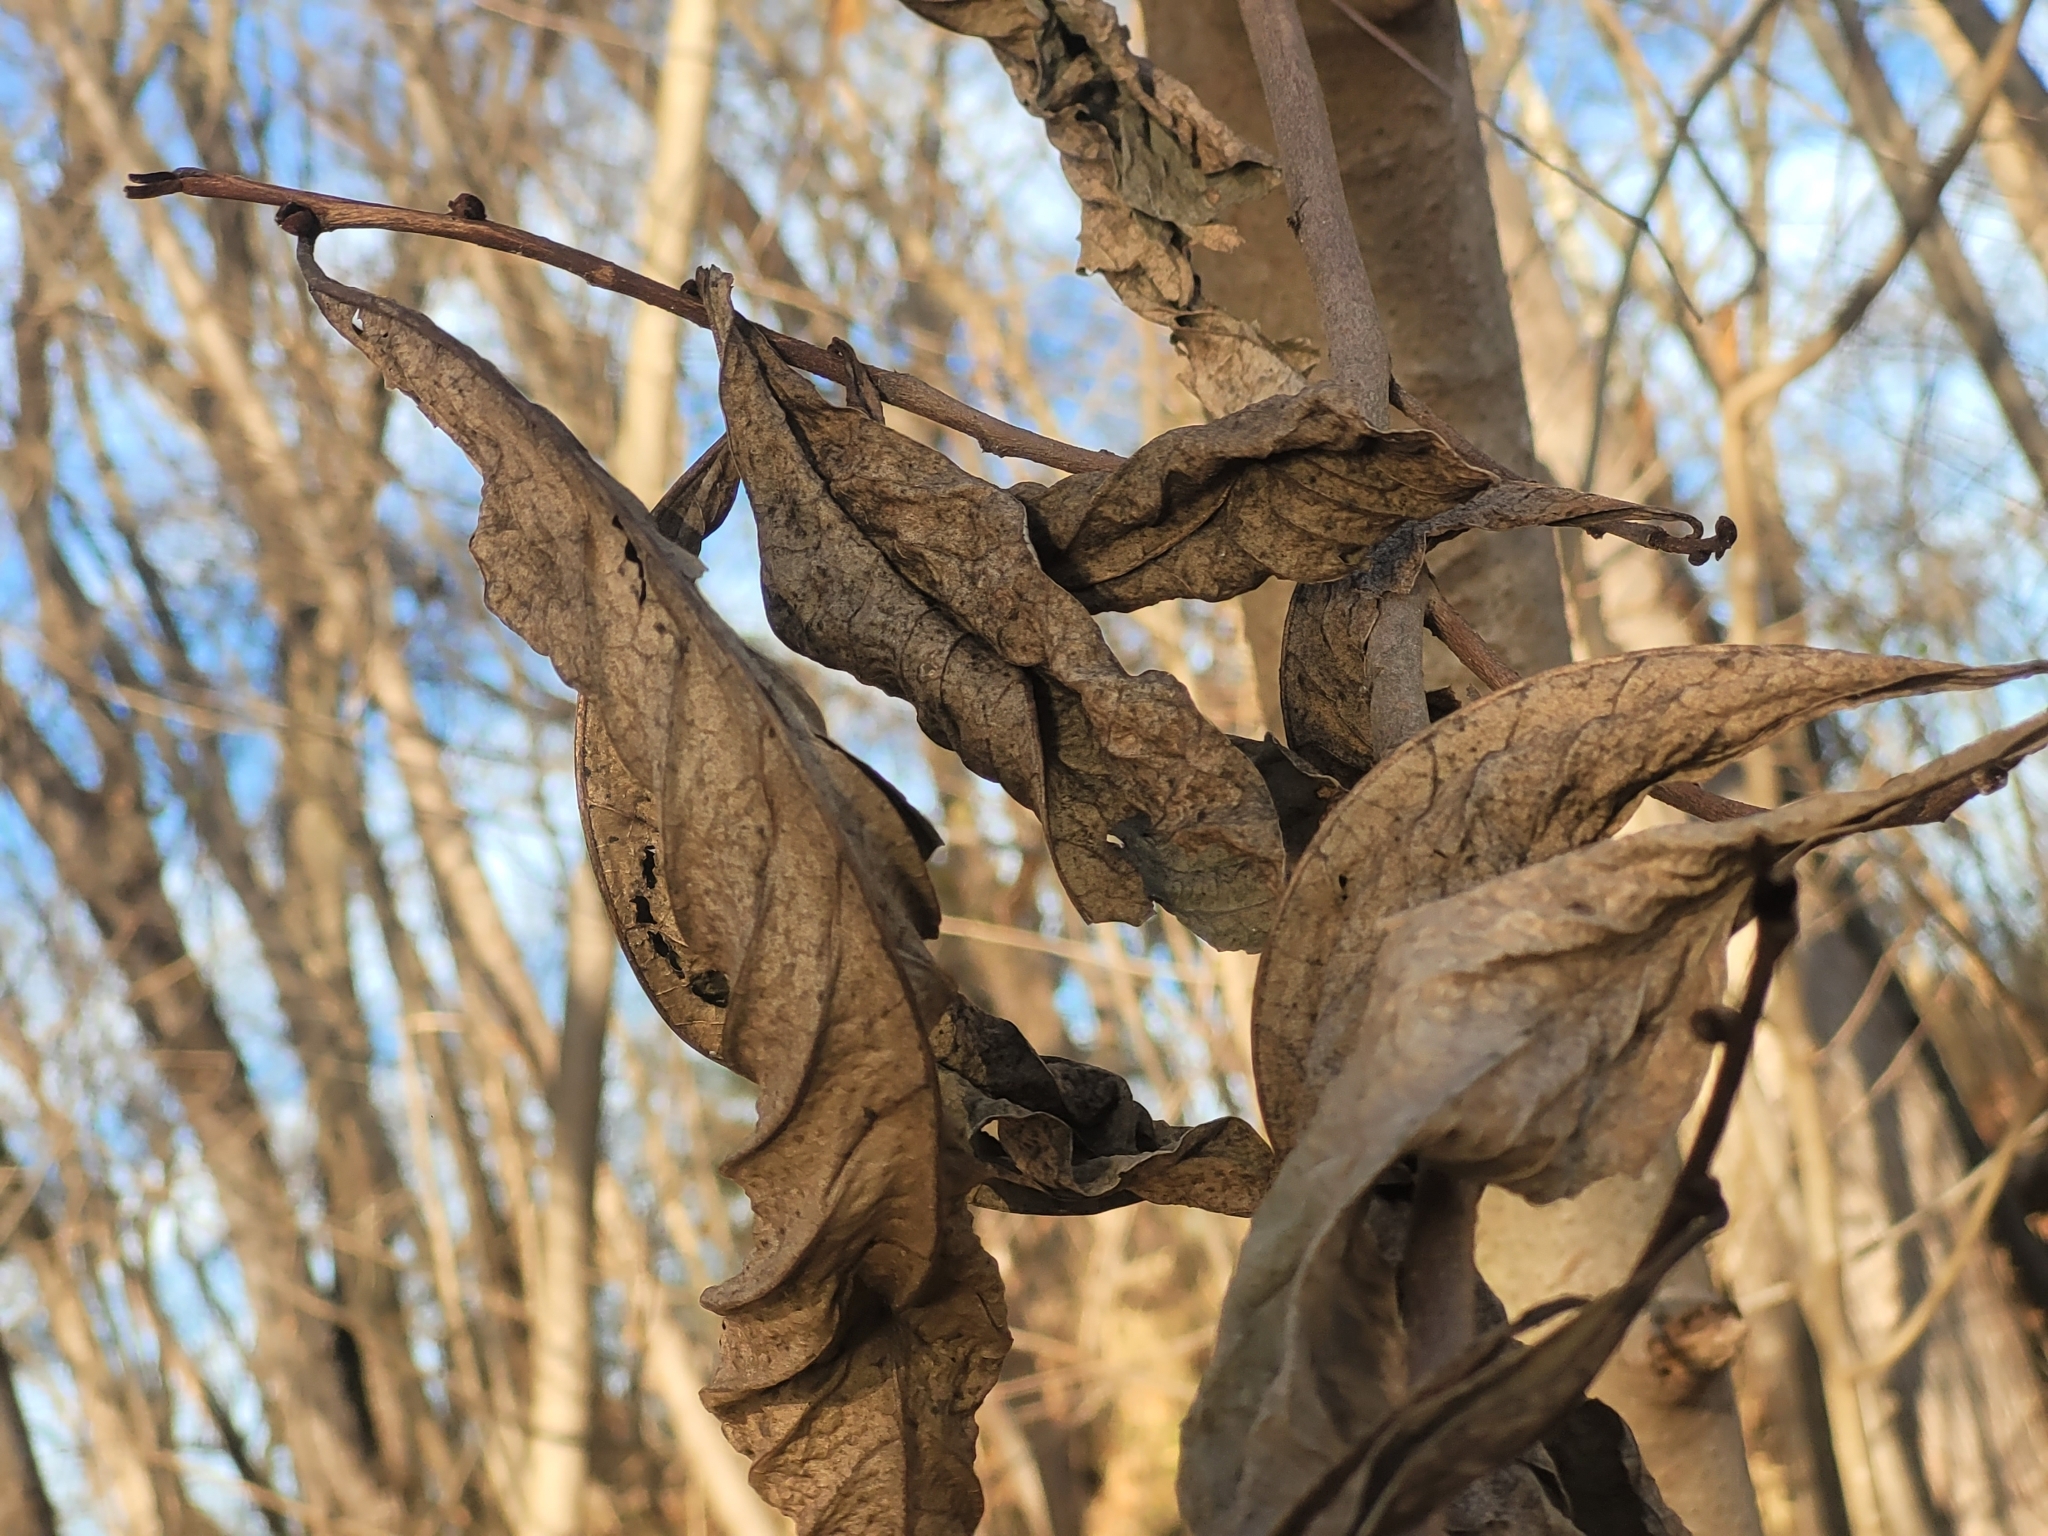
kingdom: Plantae
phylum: Tracheophyta
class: Magnoliopsida
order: Magnoliales
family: Annonaceae
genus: Asimina
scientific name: Asimina triloba
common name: Dog-banana
